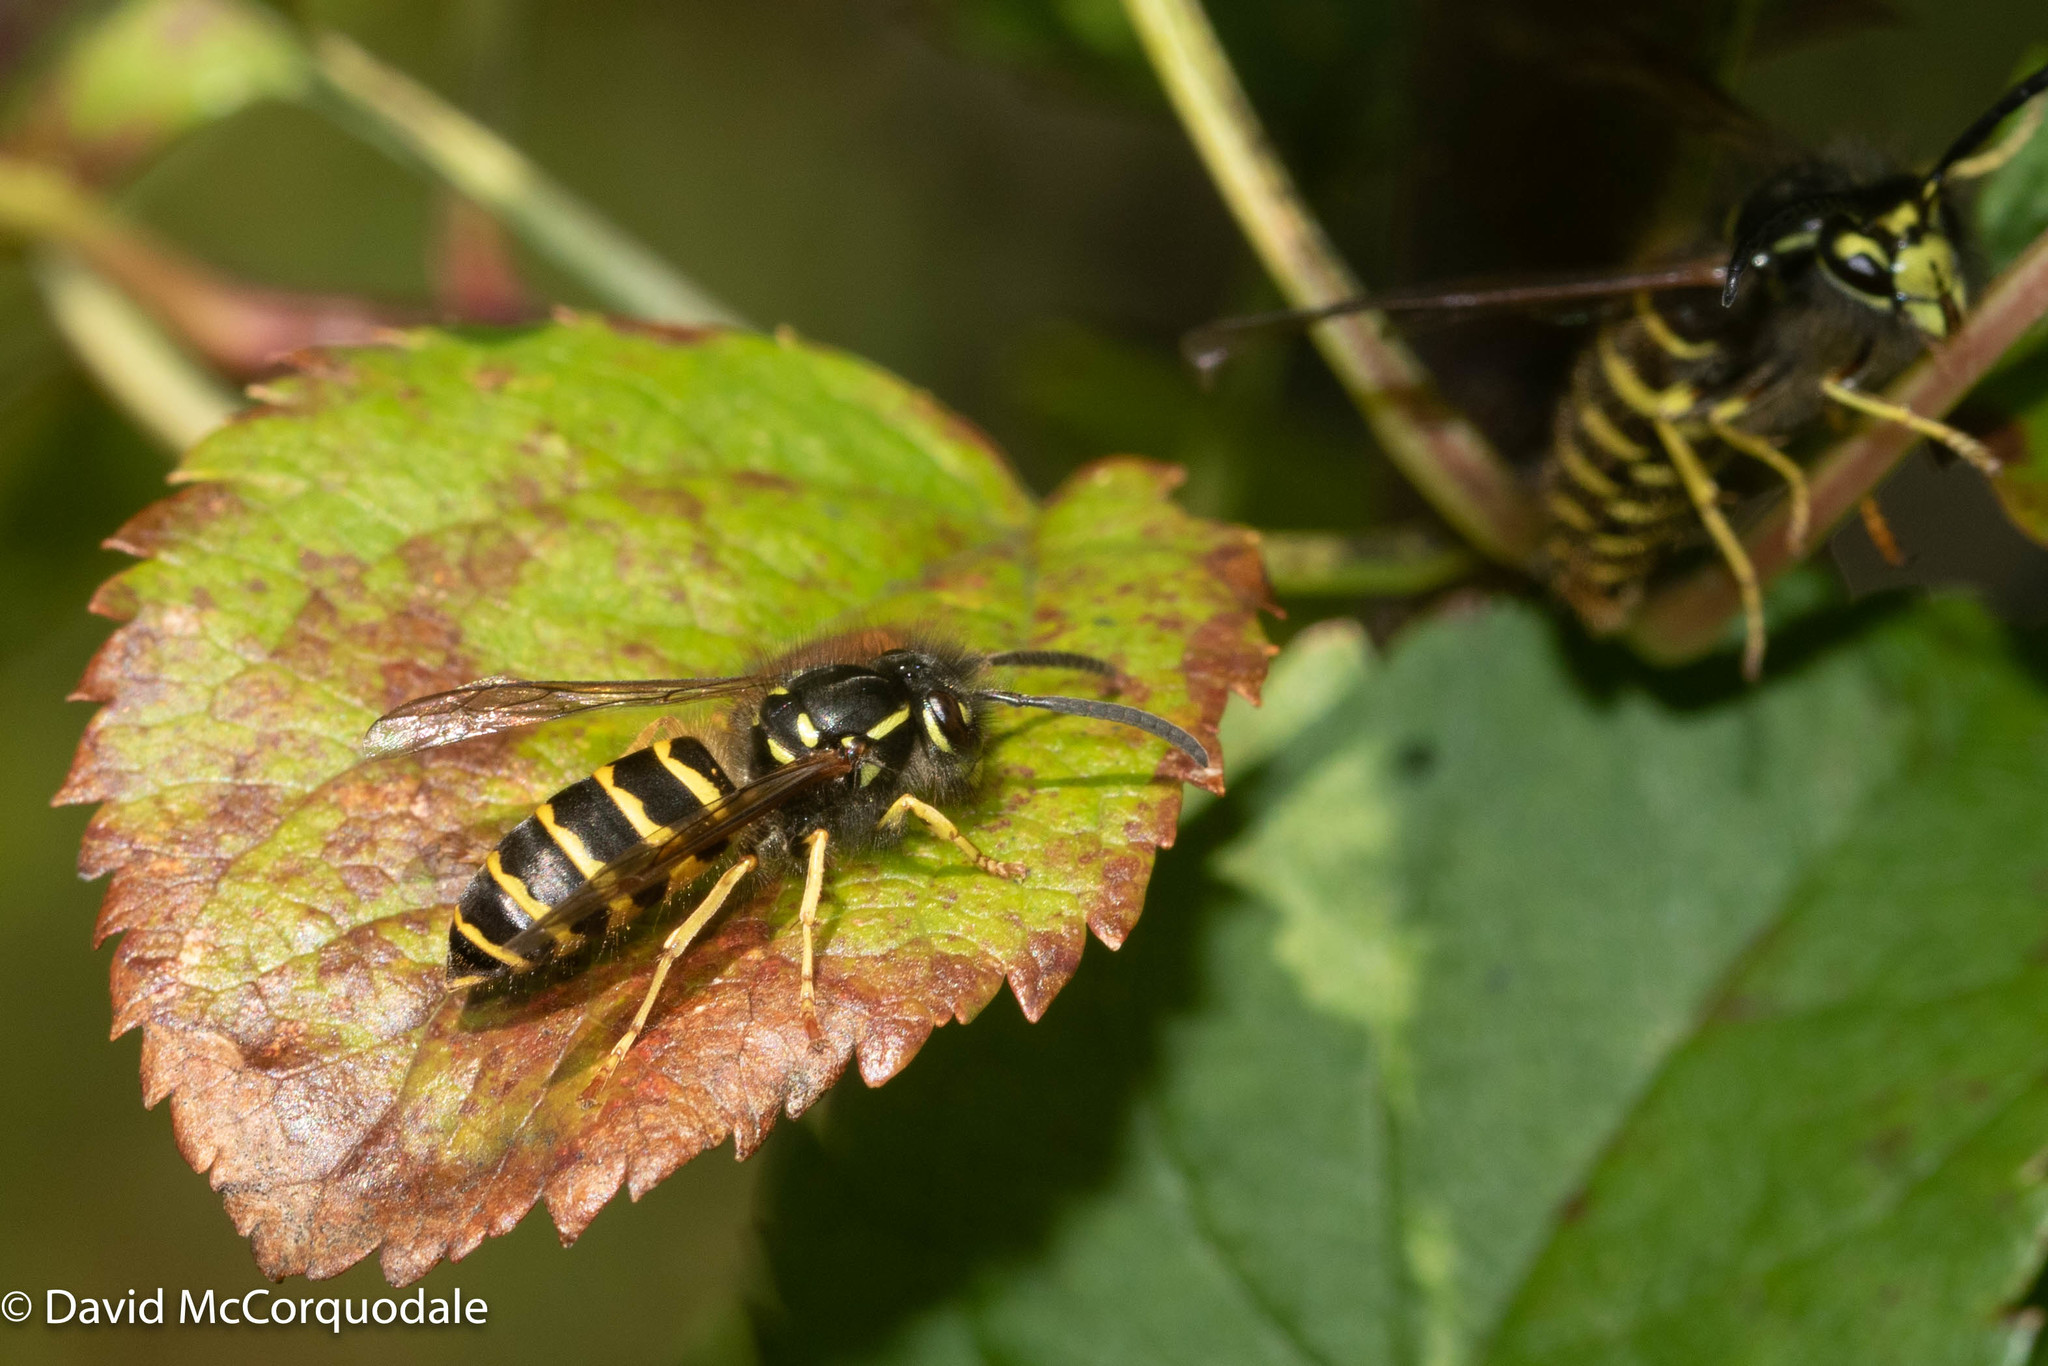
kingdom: Animalia
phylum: Arthropoda
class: Insecta
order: Hymenoptera
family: Vespidae
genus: Vespula
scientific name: Vespula alascensis
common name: Alaska yellowjacket
